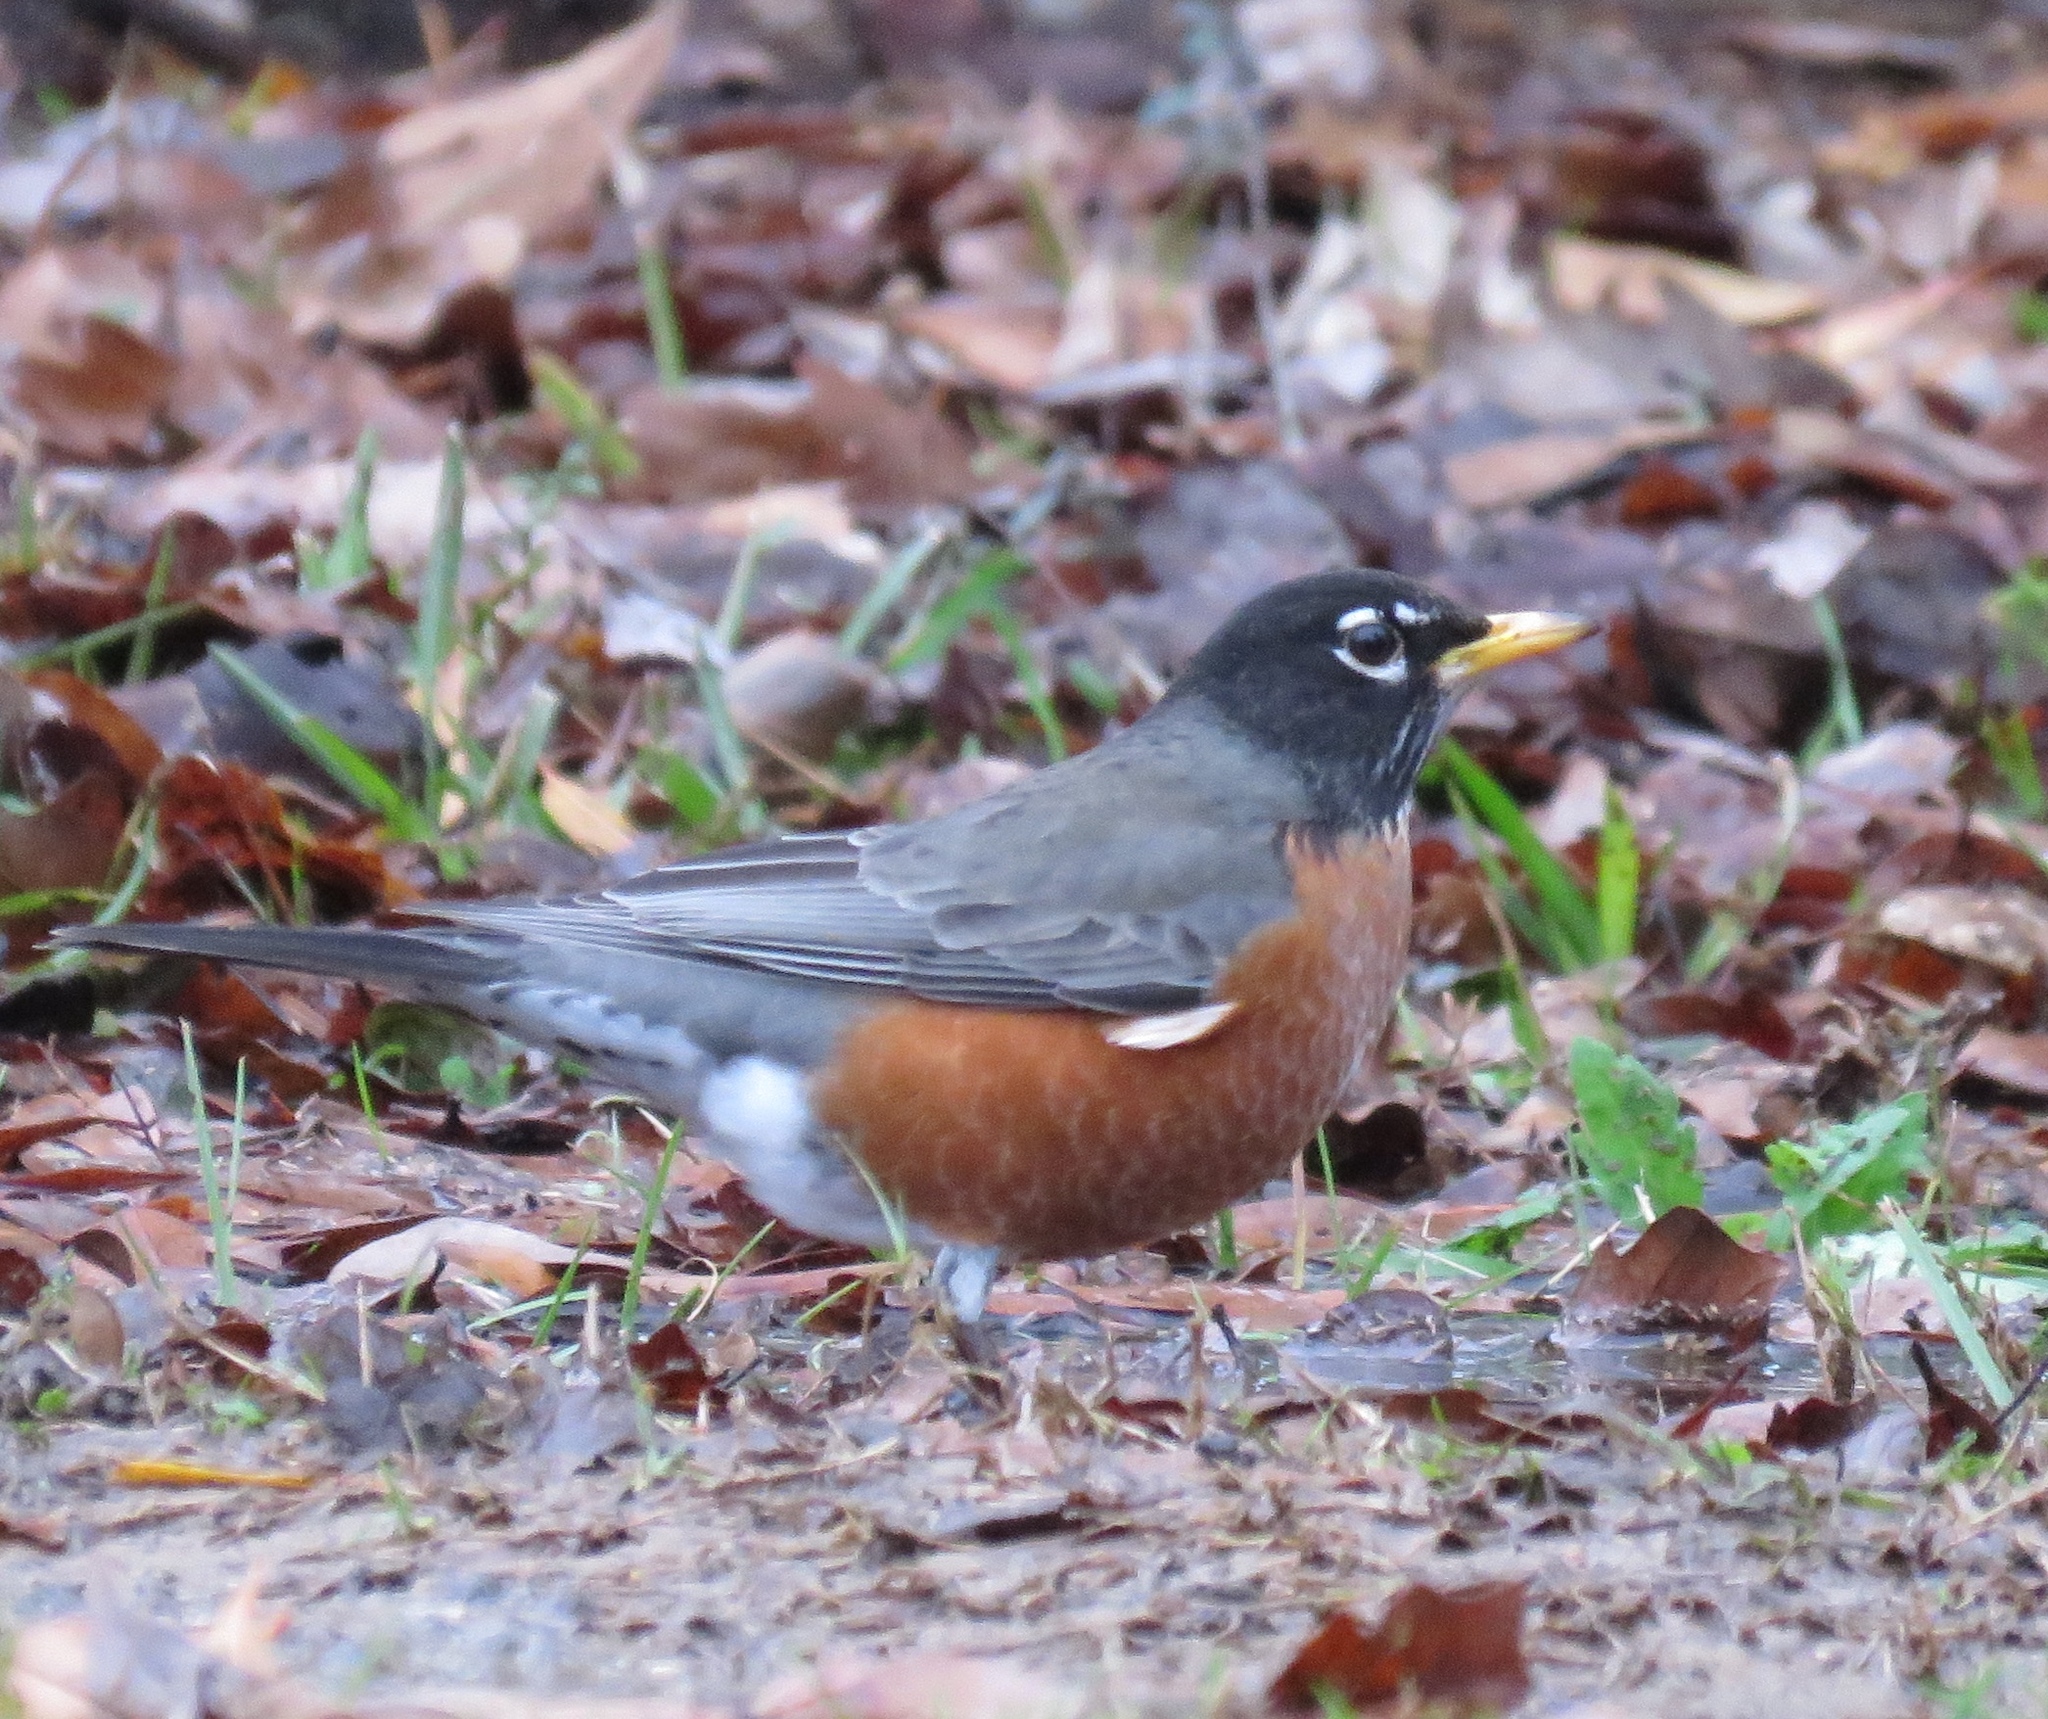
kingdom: Animalia
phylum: Chordata
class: Aves
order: Passeriformes
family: Turdidae
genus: Turdus
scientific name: Turdus migratorius
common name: American robin
